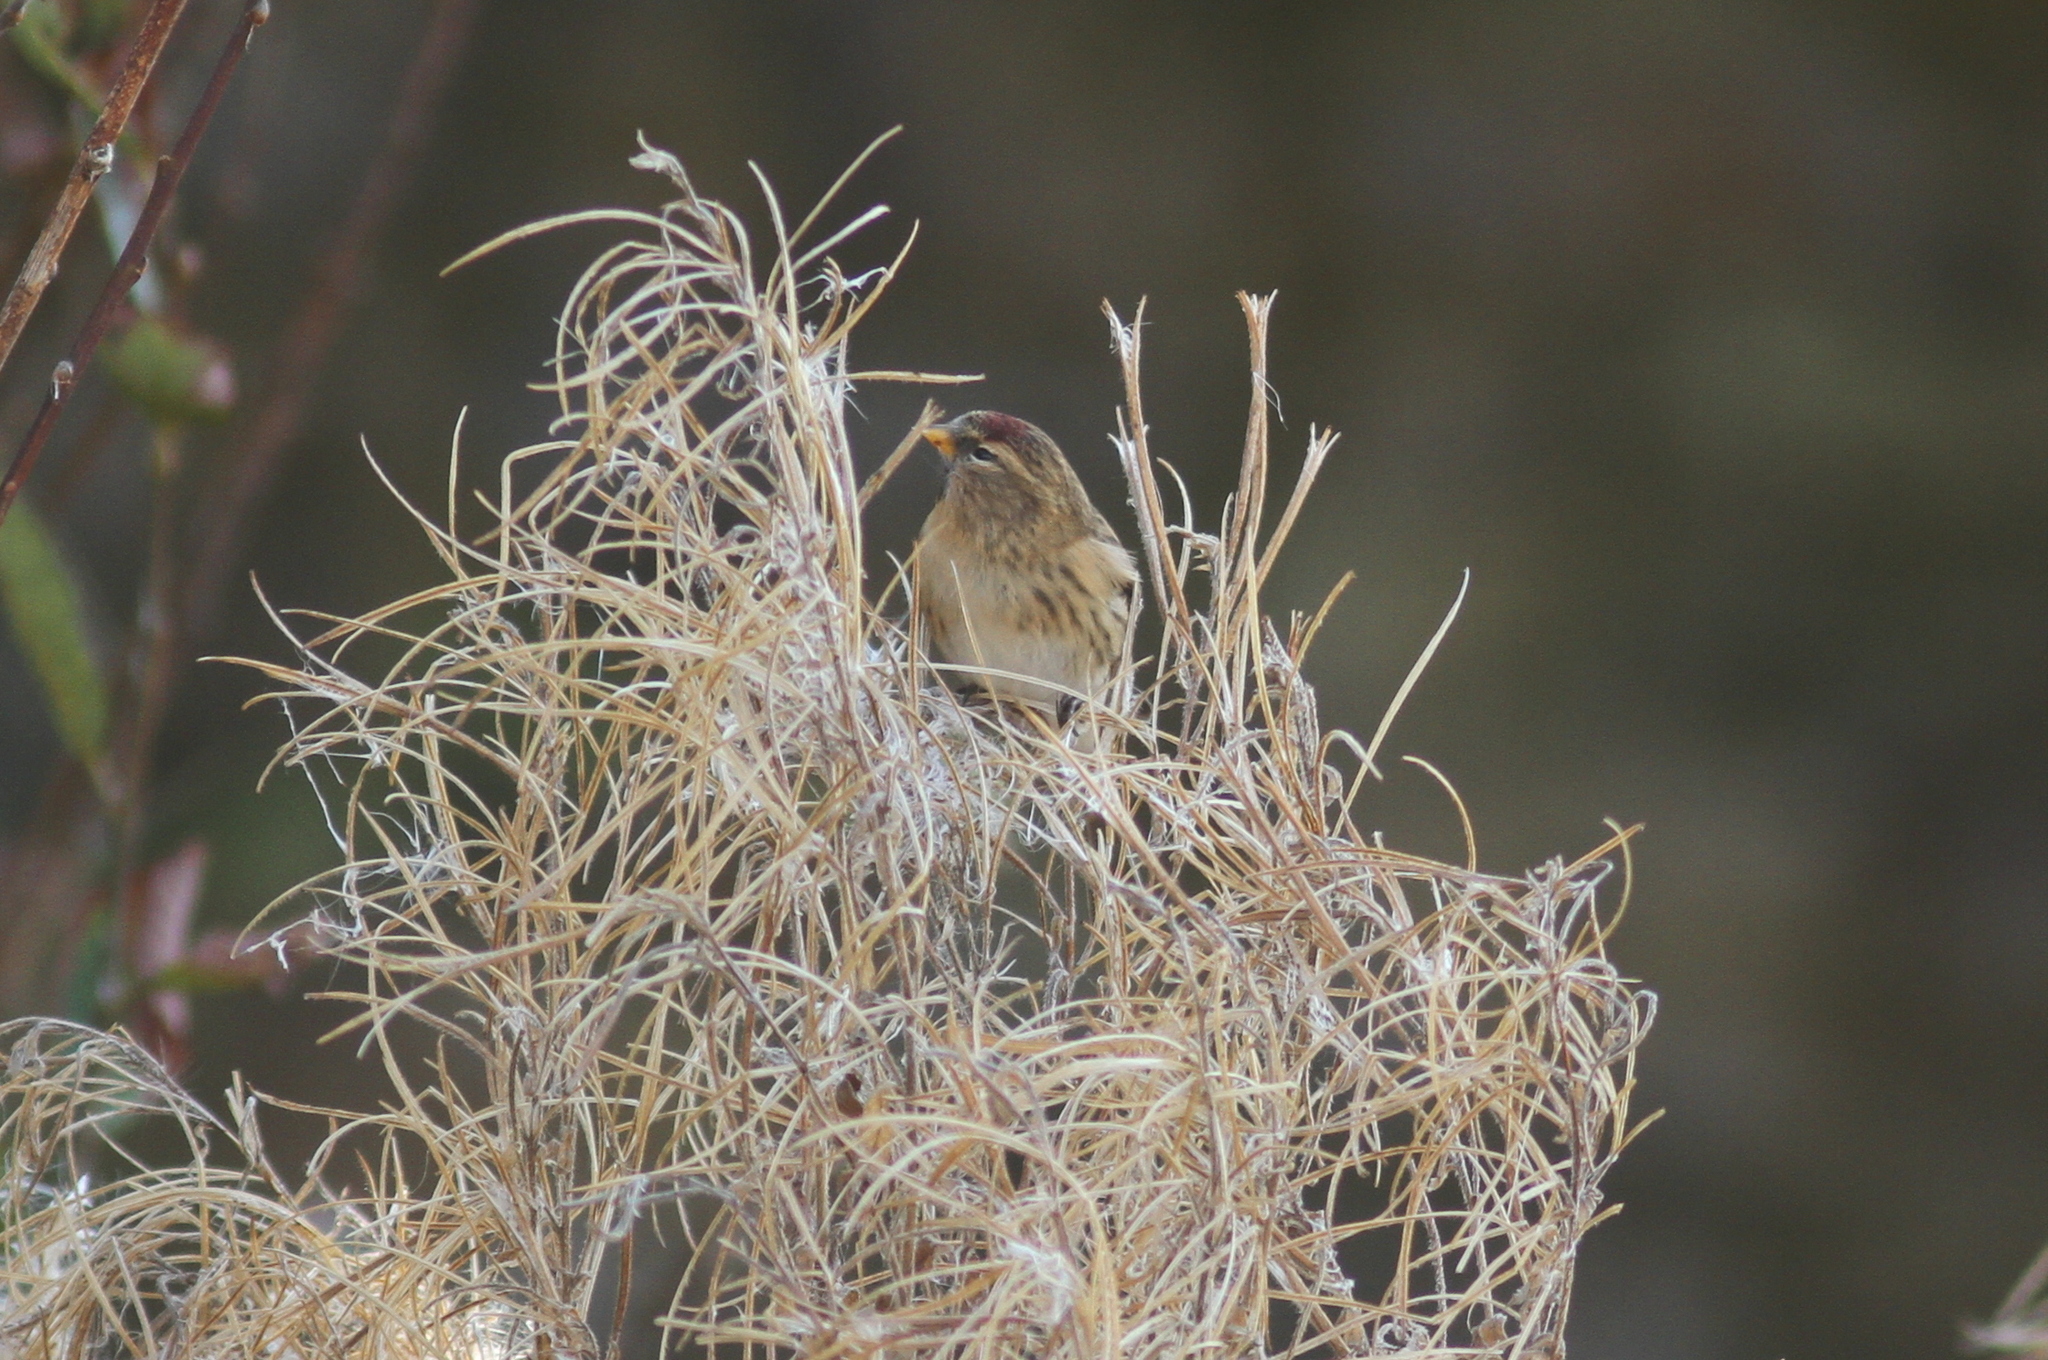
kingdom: Animalia
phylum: Chordata
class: Aves
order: Passeriformes
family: Fringillidae
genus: Acanthis
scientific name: Acanthis flammea
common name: Common redpoll
